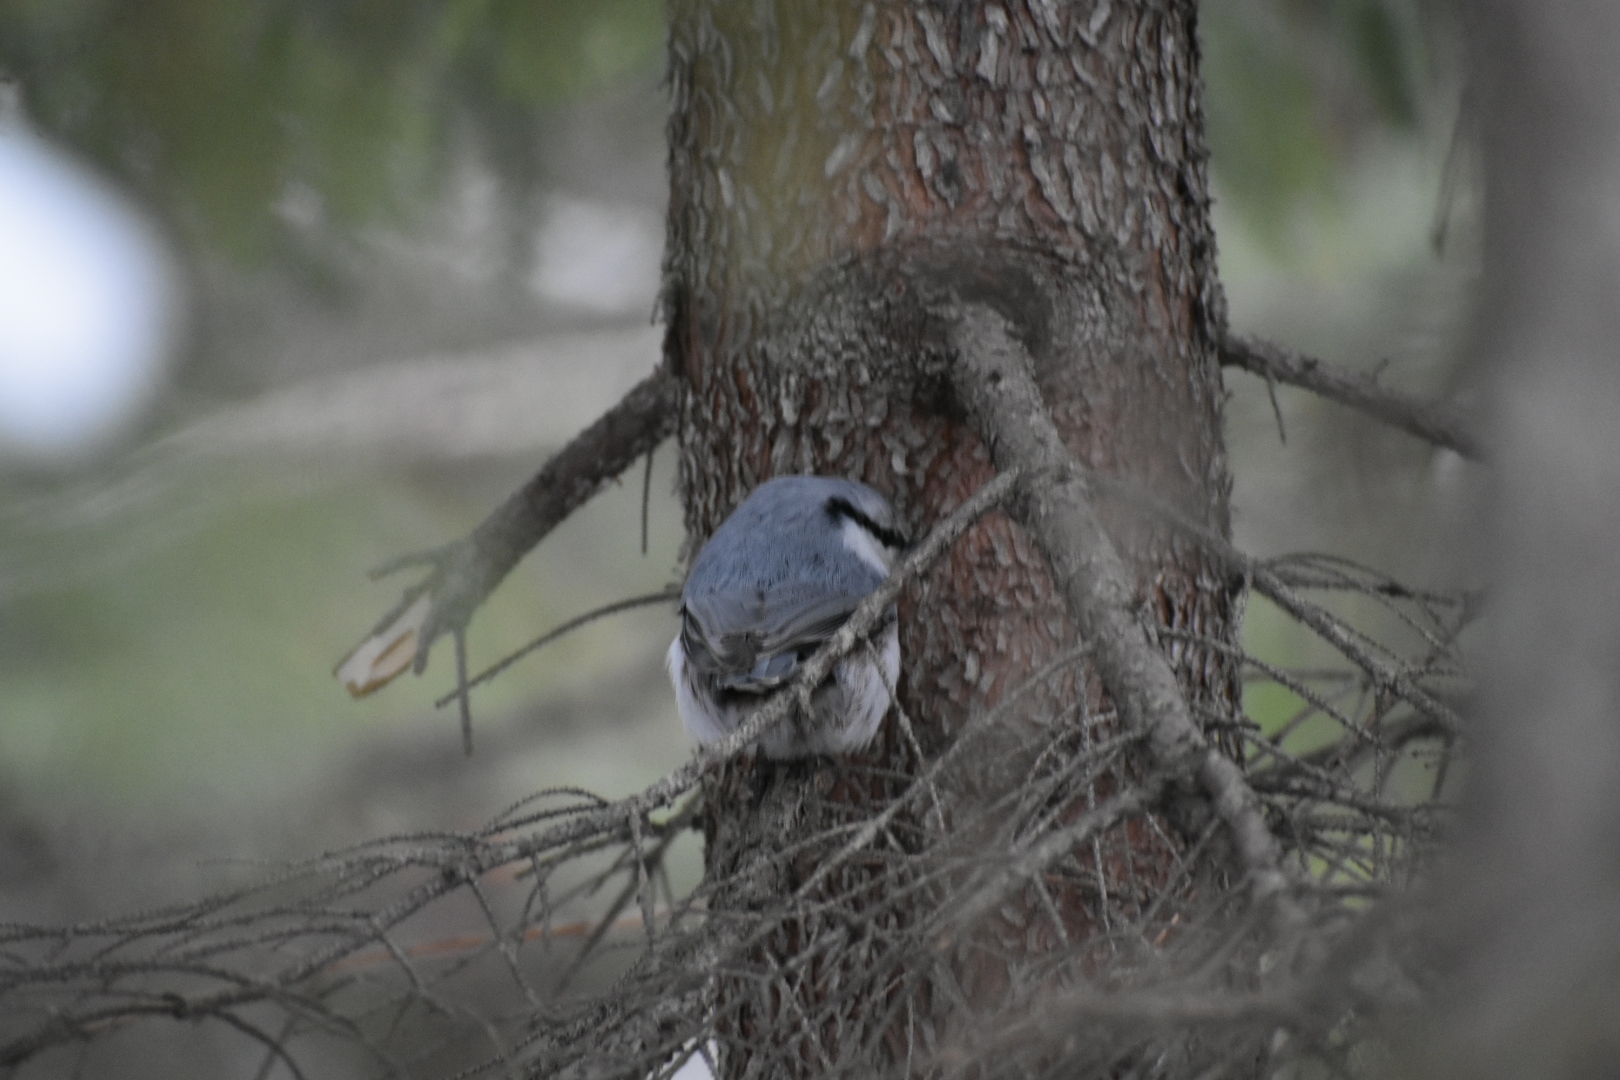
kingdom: Animalia
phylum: Chordata
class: Aves
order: Passeriformes
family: Sittidae
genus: Sitta
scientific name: Sitta europaea
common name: Eurasian nuthatch
